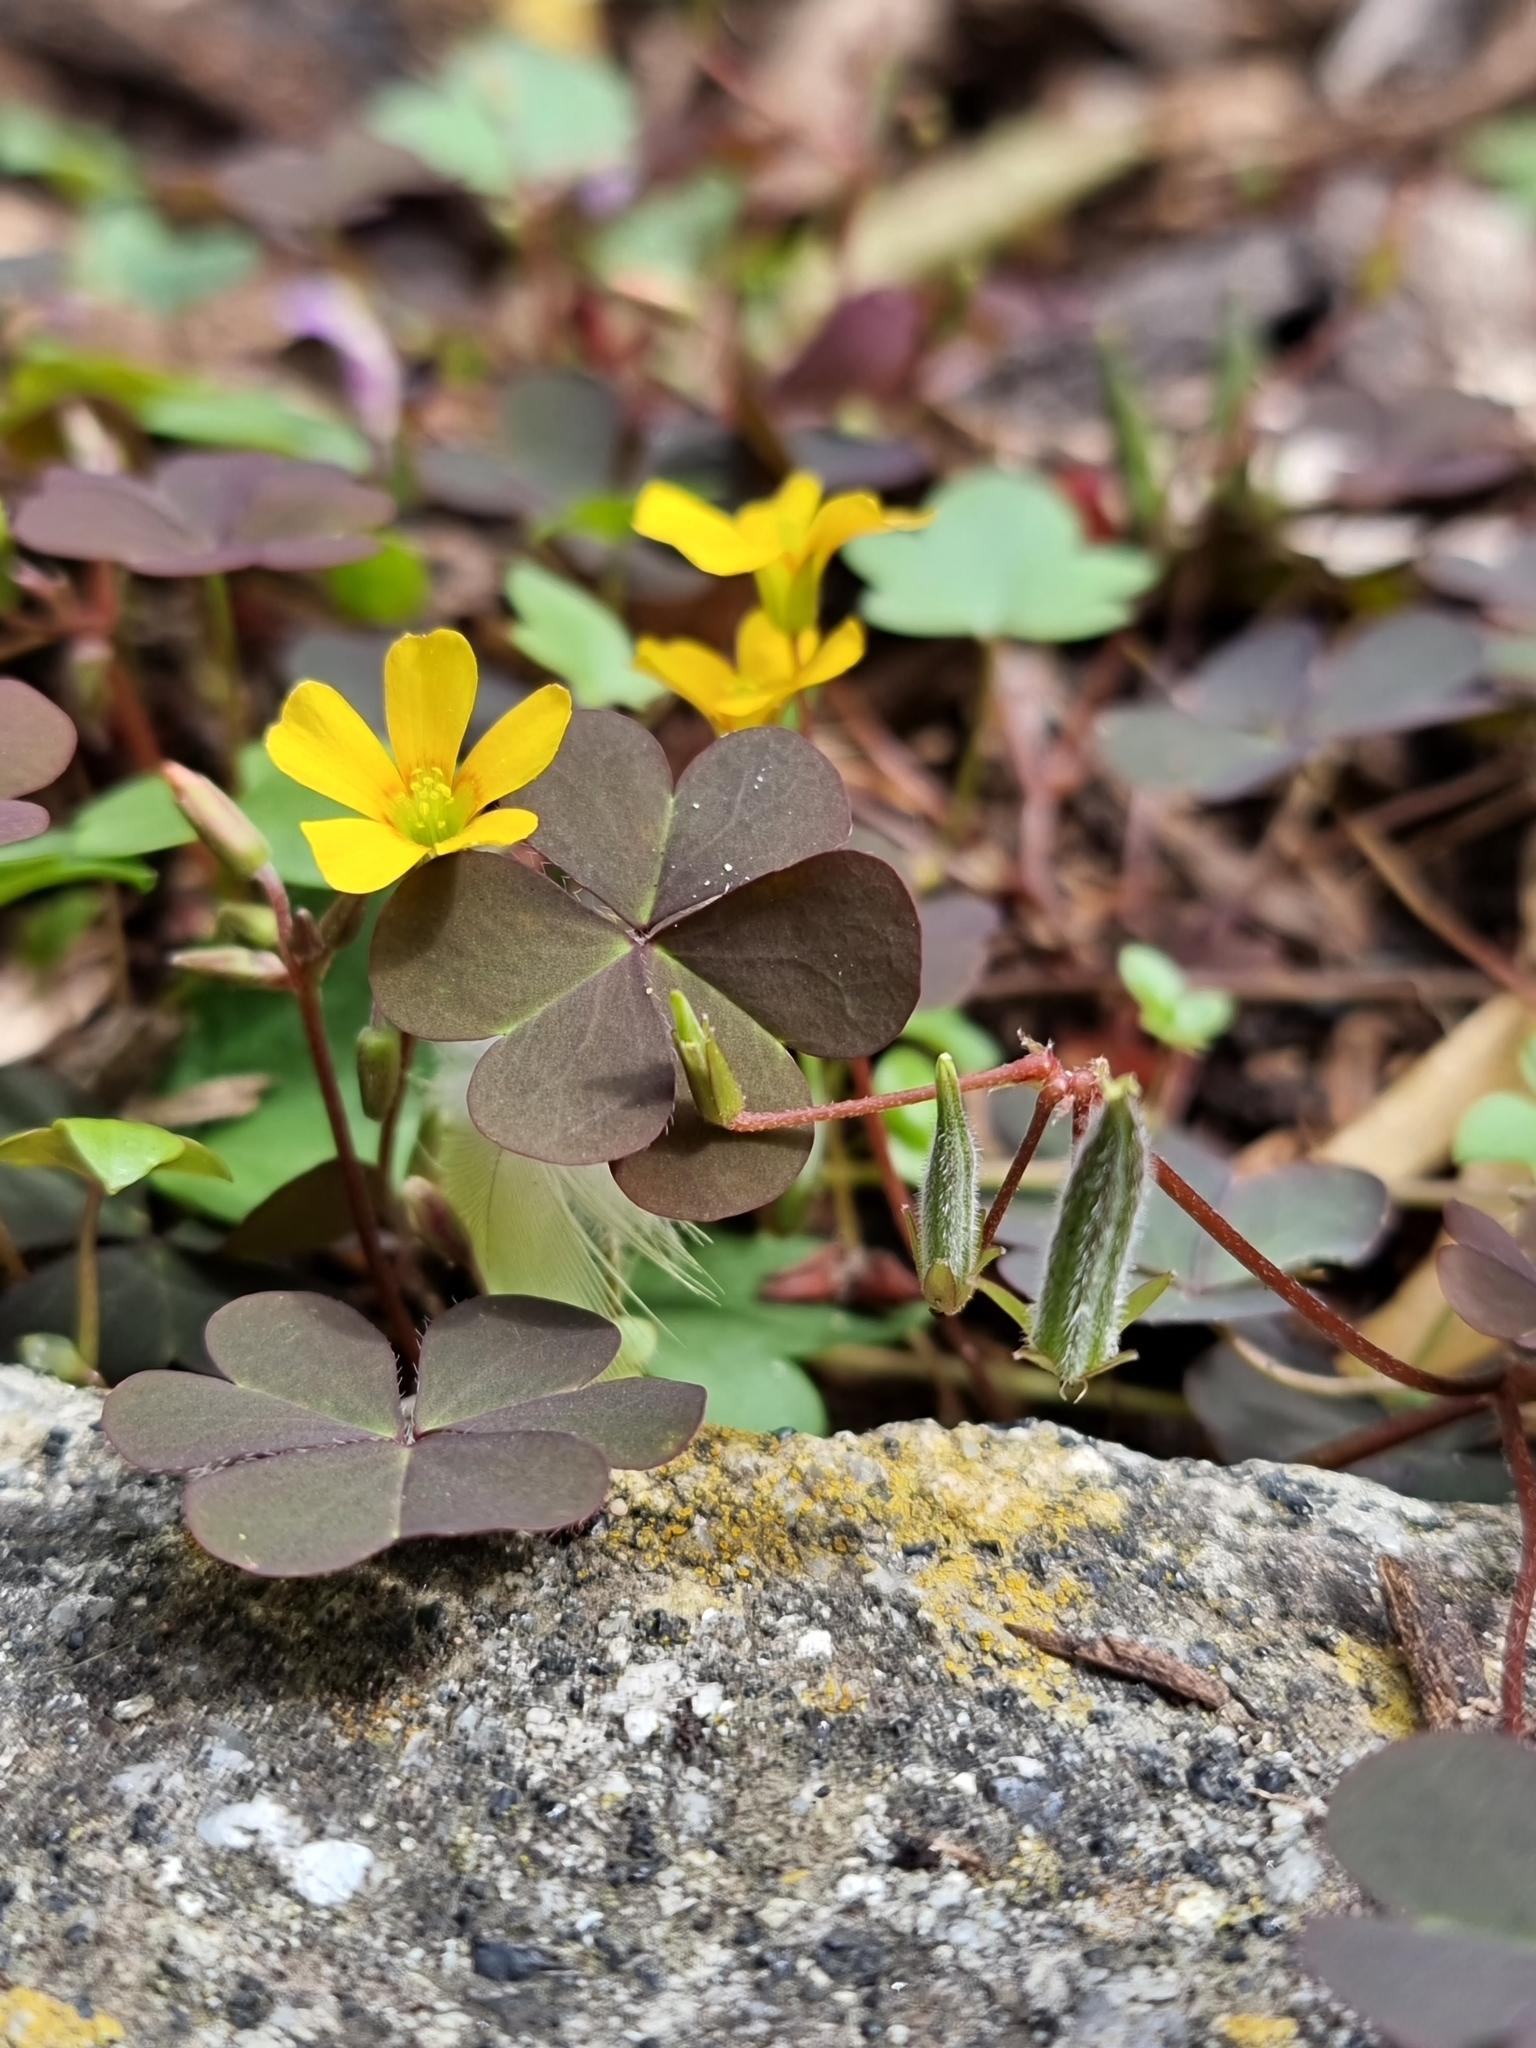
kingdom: Plantae
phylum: Tracheophyta
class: Magnoliopsida
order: Oxalidales
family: Oxalidaceae
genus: Oxalis
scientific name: Oxalis corniculata
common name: Procumbent yellow-sorrel
